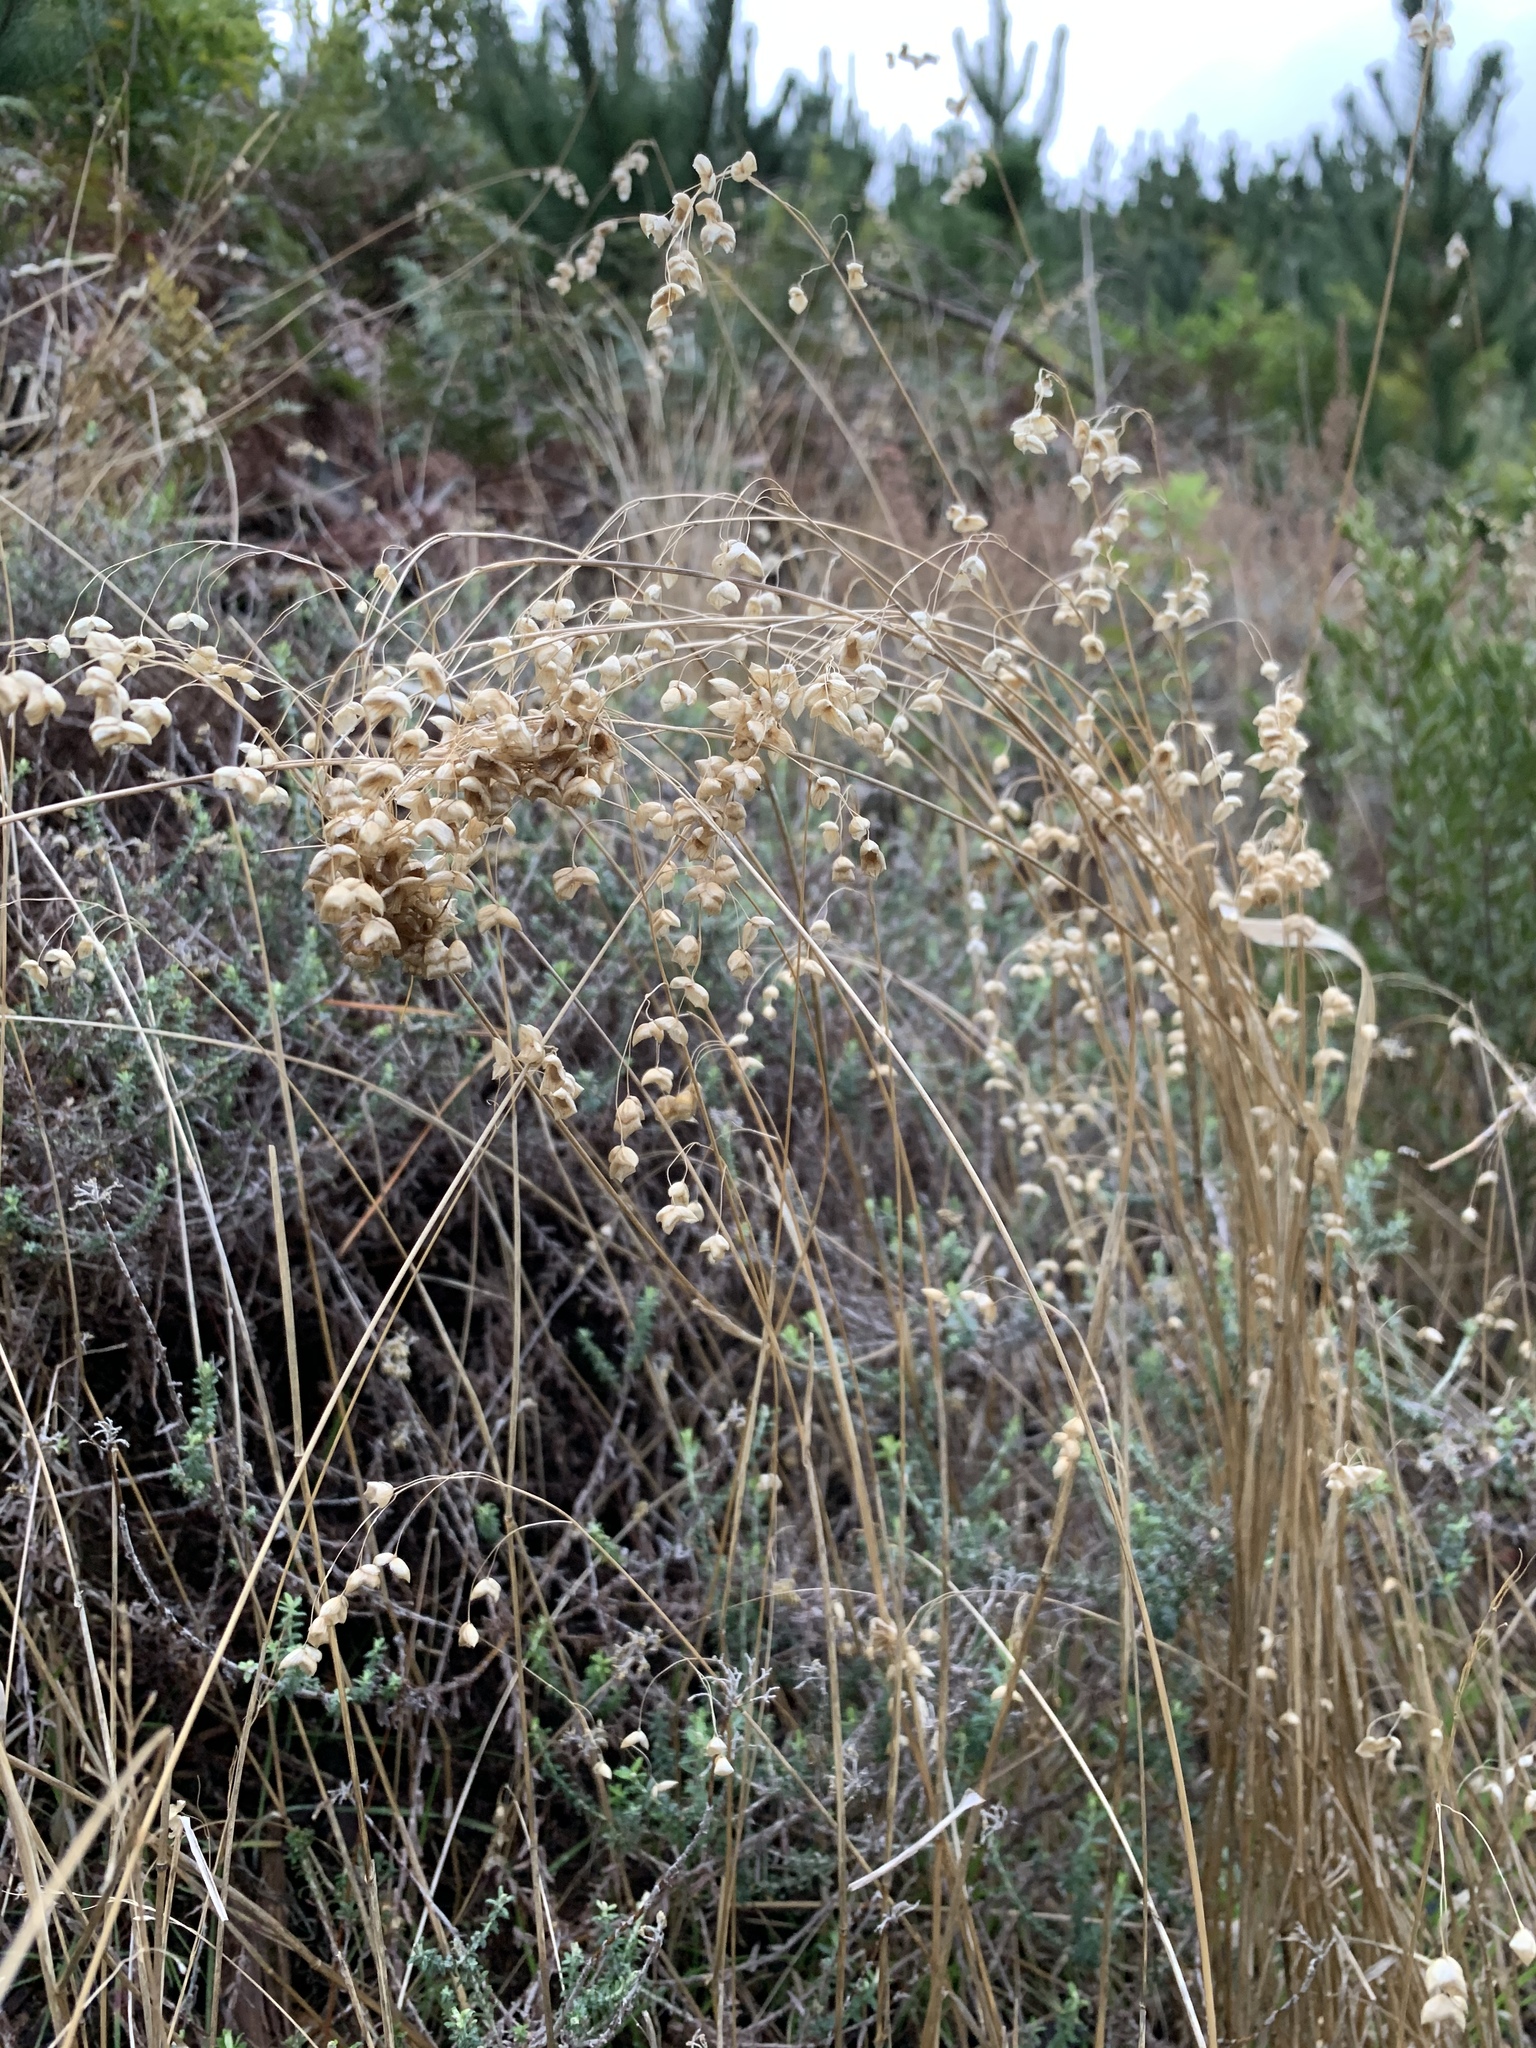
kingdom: Plantae
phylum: Tracheophyta
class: Liliopsida
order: Poales
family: Poaceae
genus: Briza
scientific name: Briza maxima
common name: Big quakinggrass
